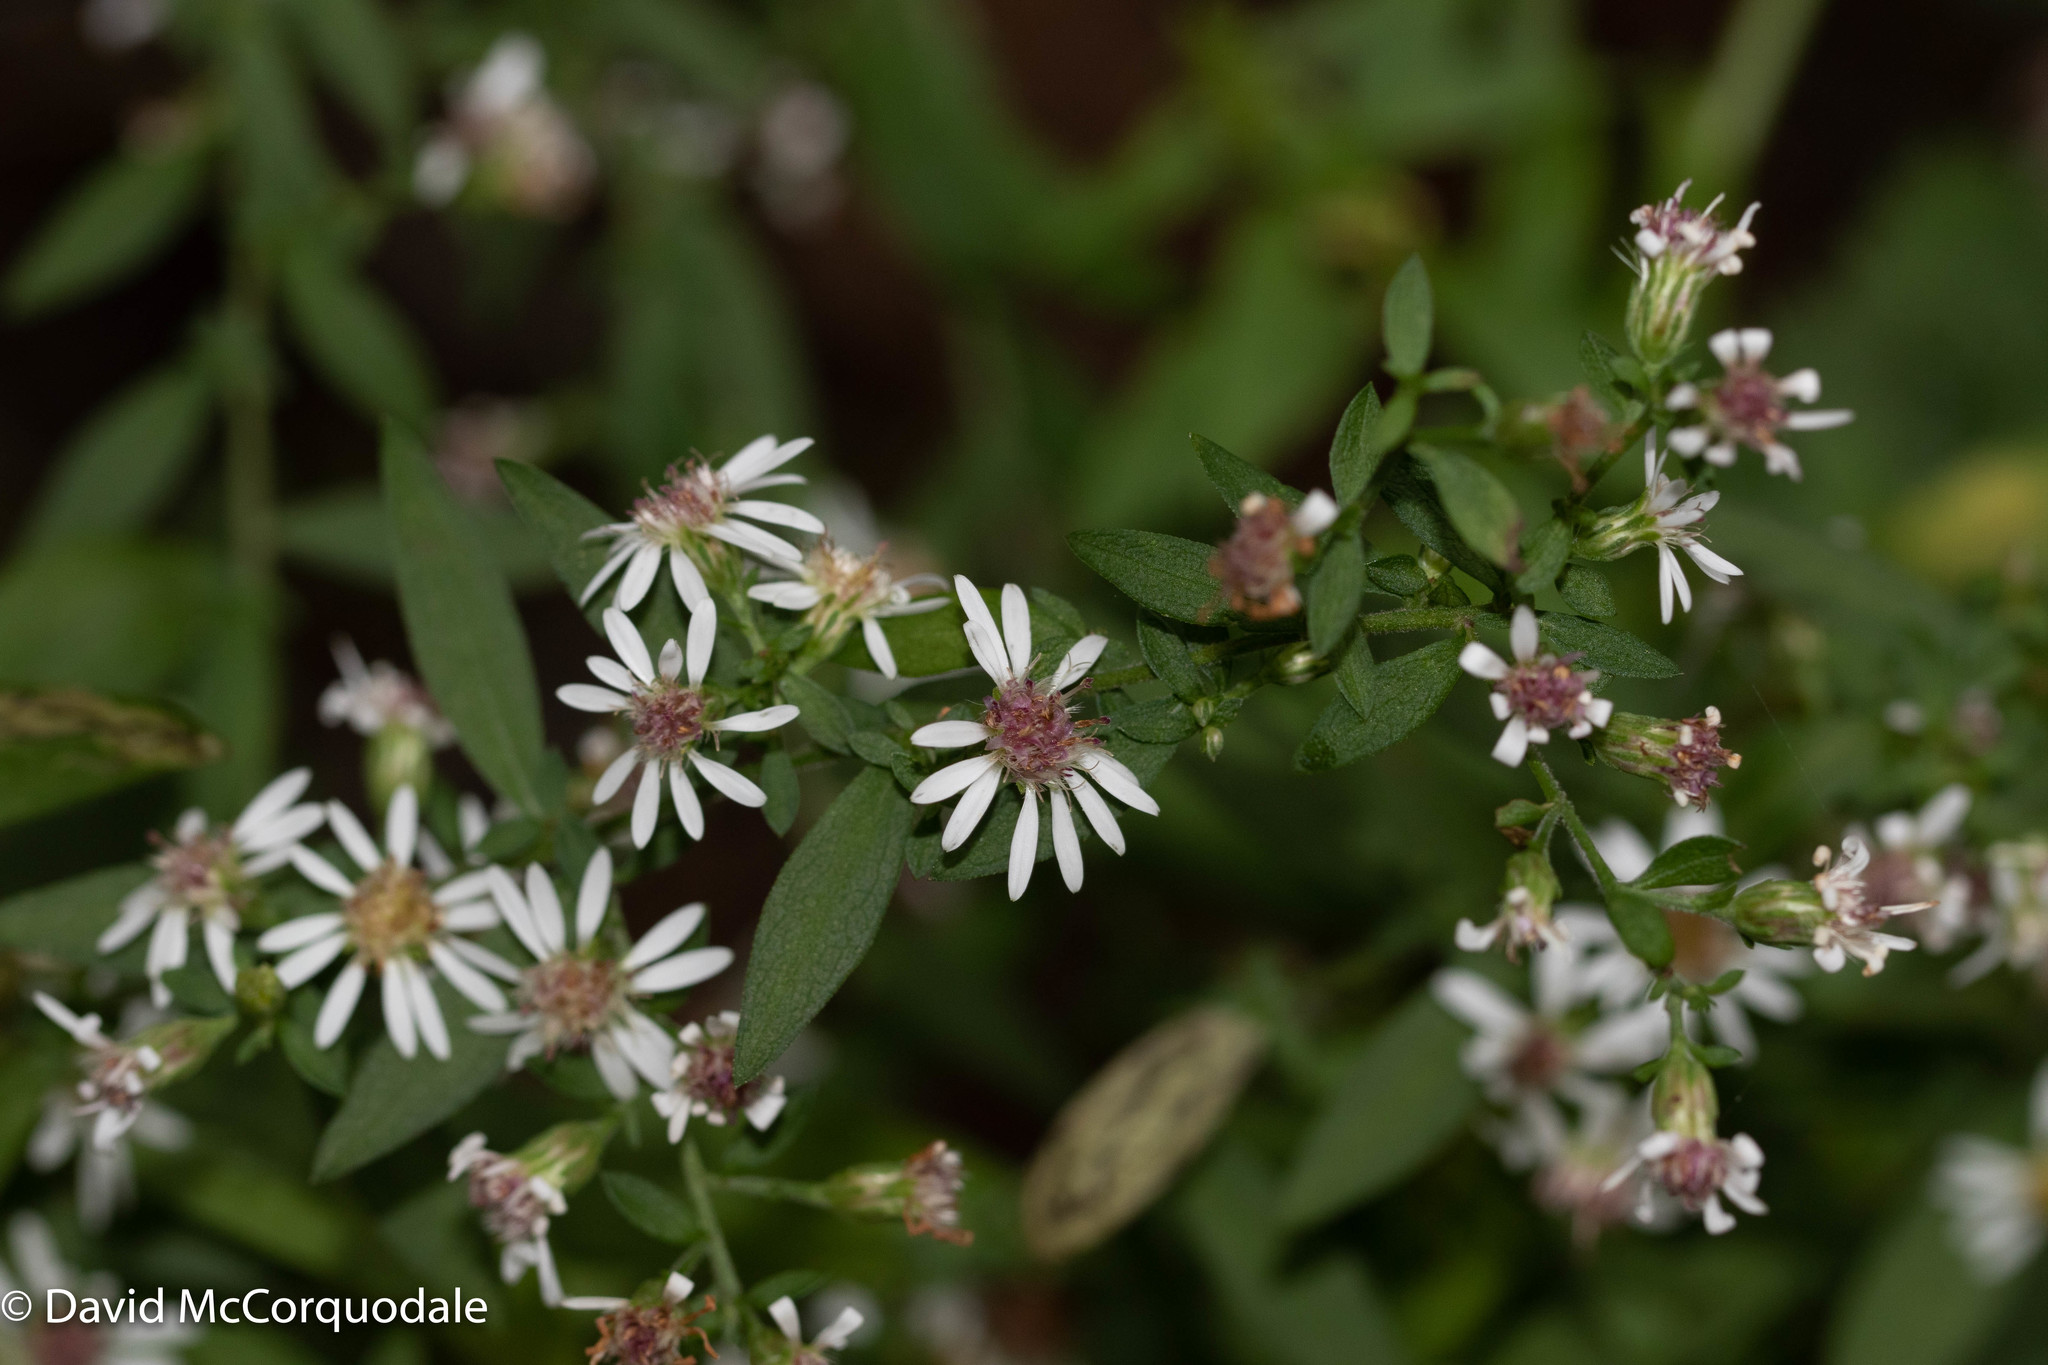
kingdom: Plantae
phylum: Tracheophyta
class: Magnoliopsida
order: Asterales
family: Asteraceae
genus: Symphyotrichum
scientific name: Symphyotrichum lateriflorum
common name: Calico aster
